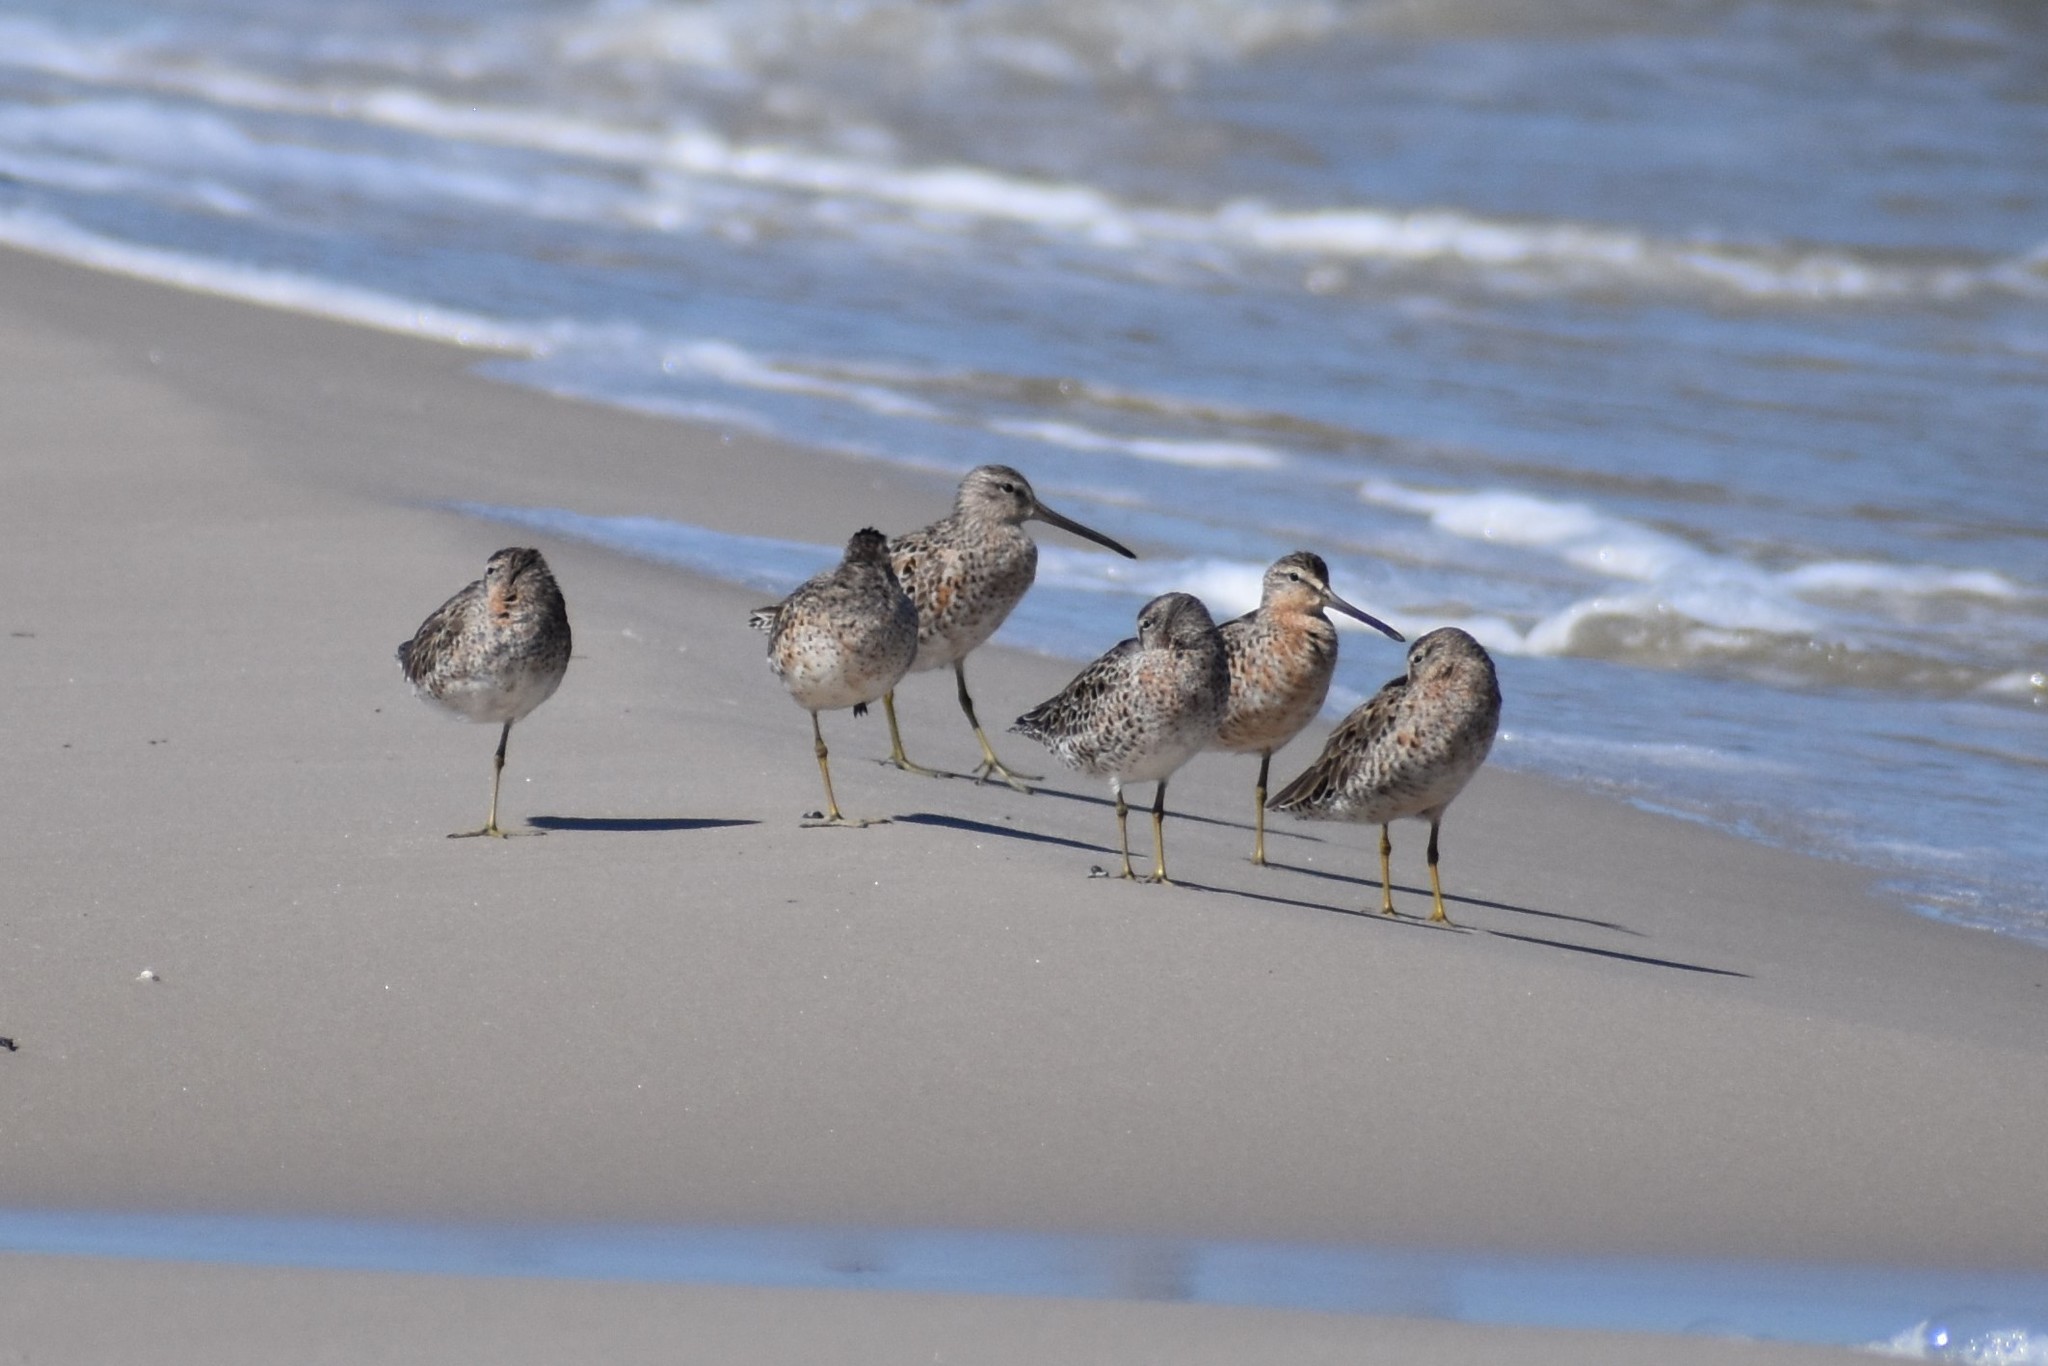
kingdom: Animalia
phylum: Chordata
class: Aves
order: Charadriiformes
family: Scolopacidae
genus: Limnodromus
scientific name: Limnodromus griseus
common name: Short-billed dowitcher
